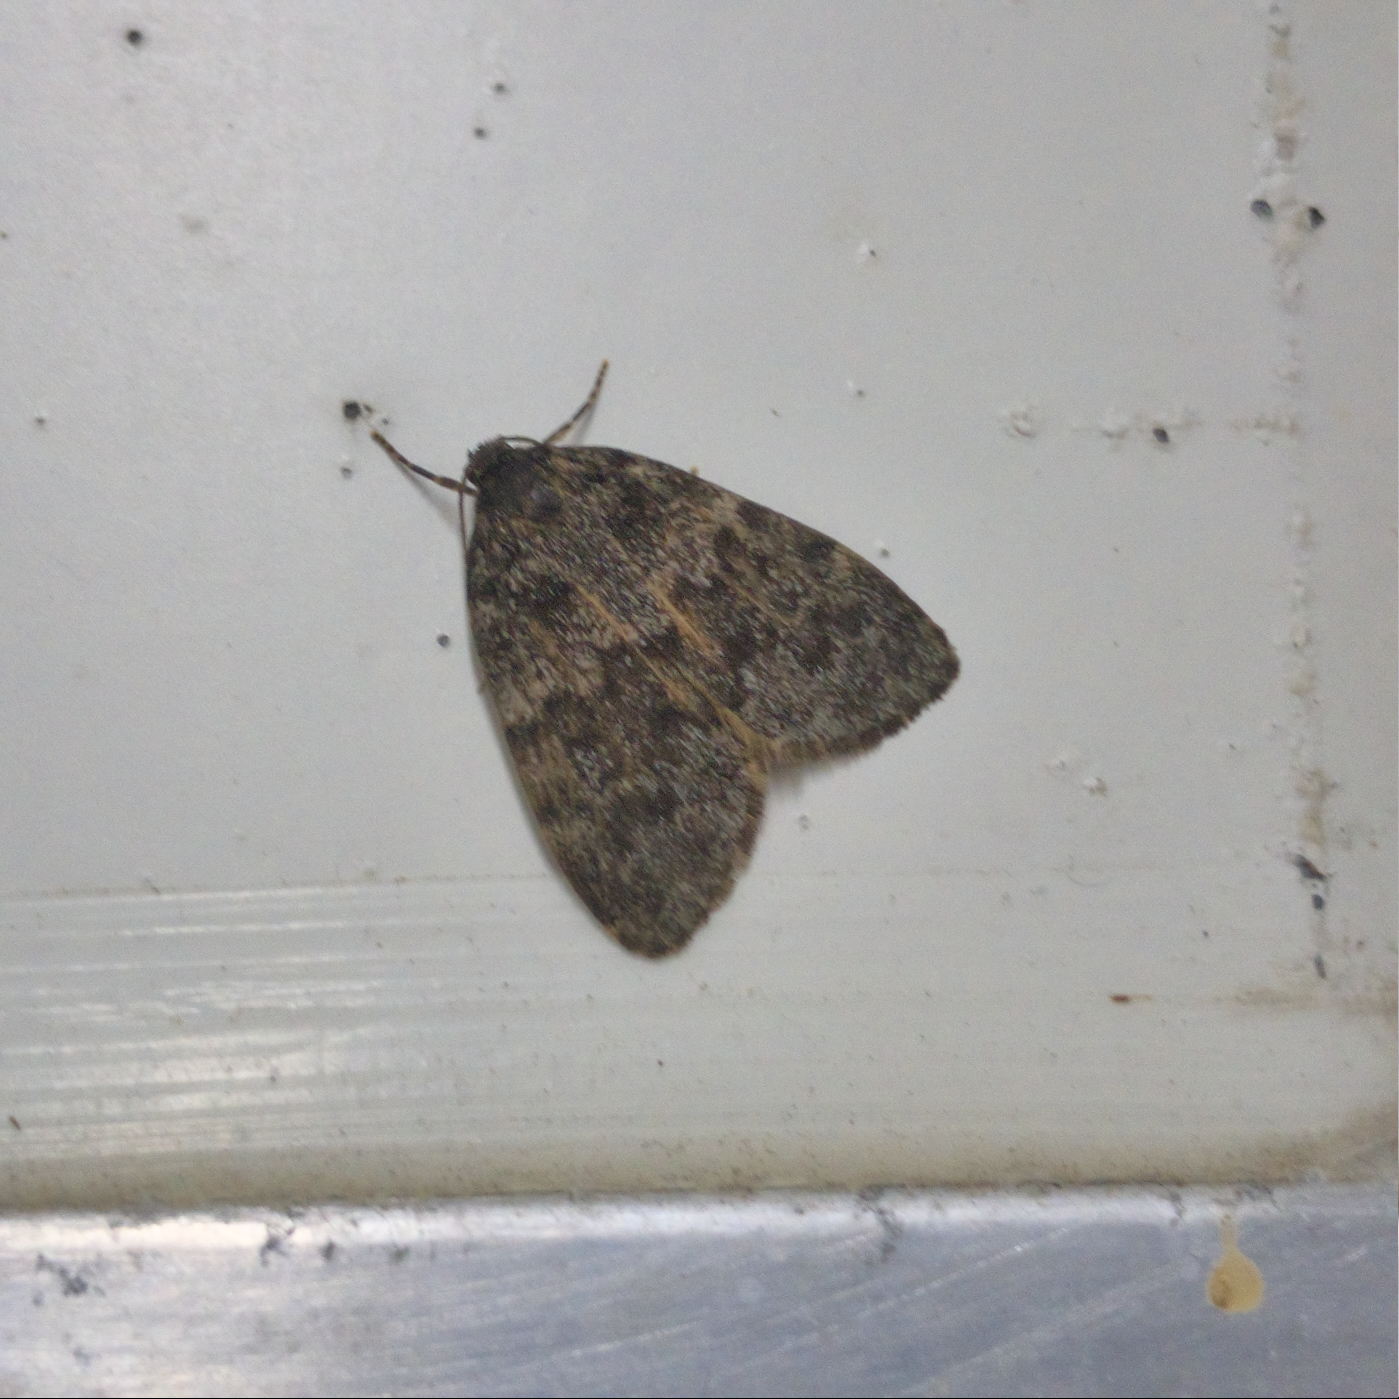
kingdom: Animalia
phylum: Arthropoda
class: Insecta
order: Lepidoptera
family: Erebidae
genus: Halone
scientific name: Halone consolatrix
